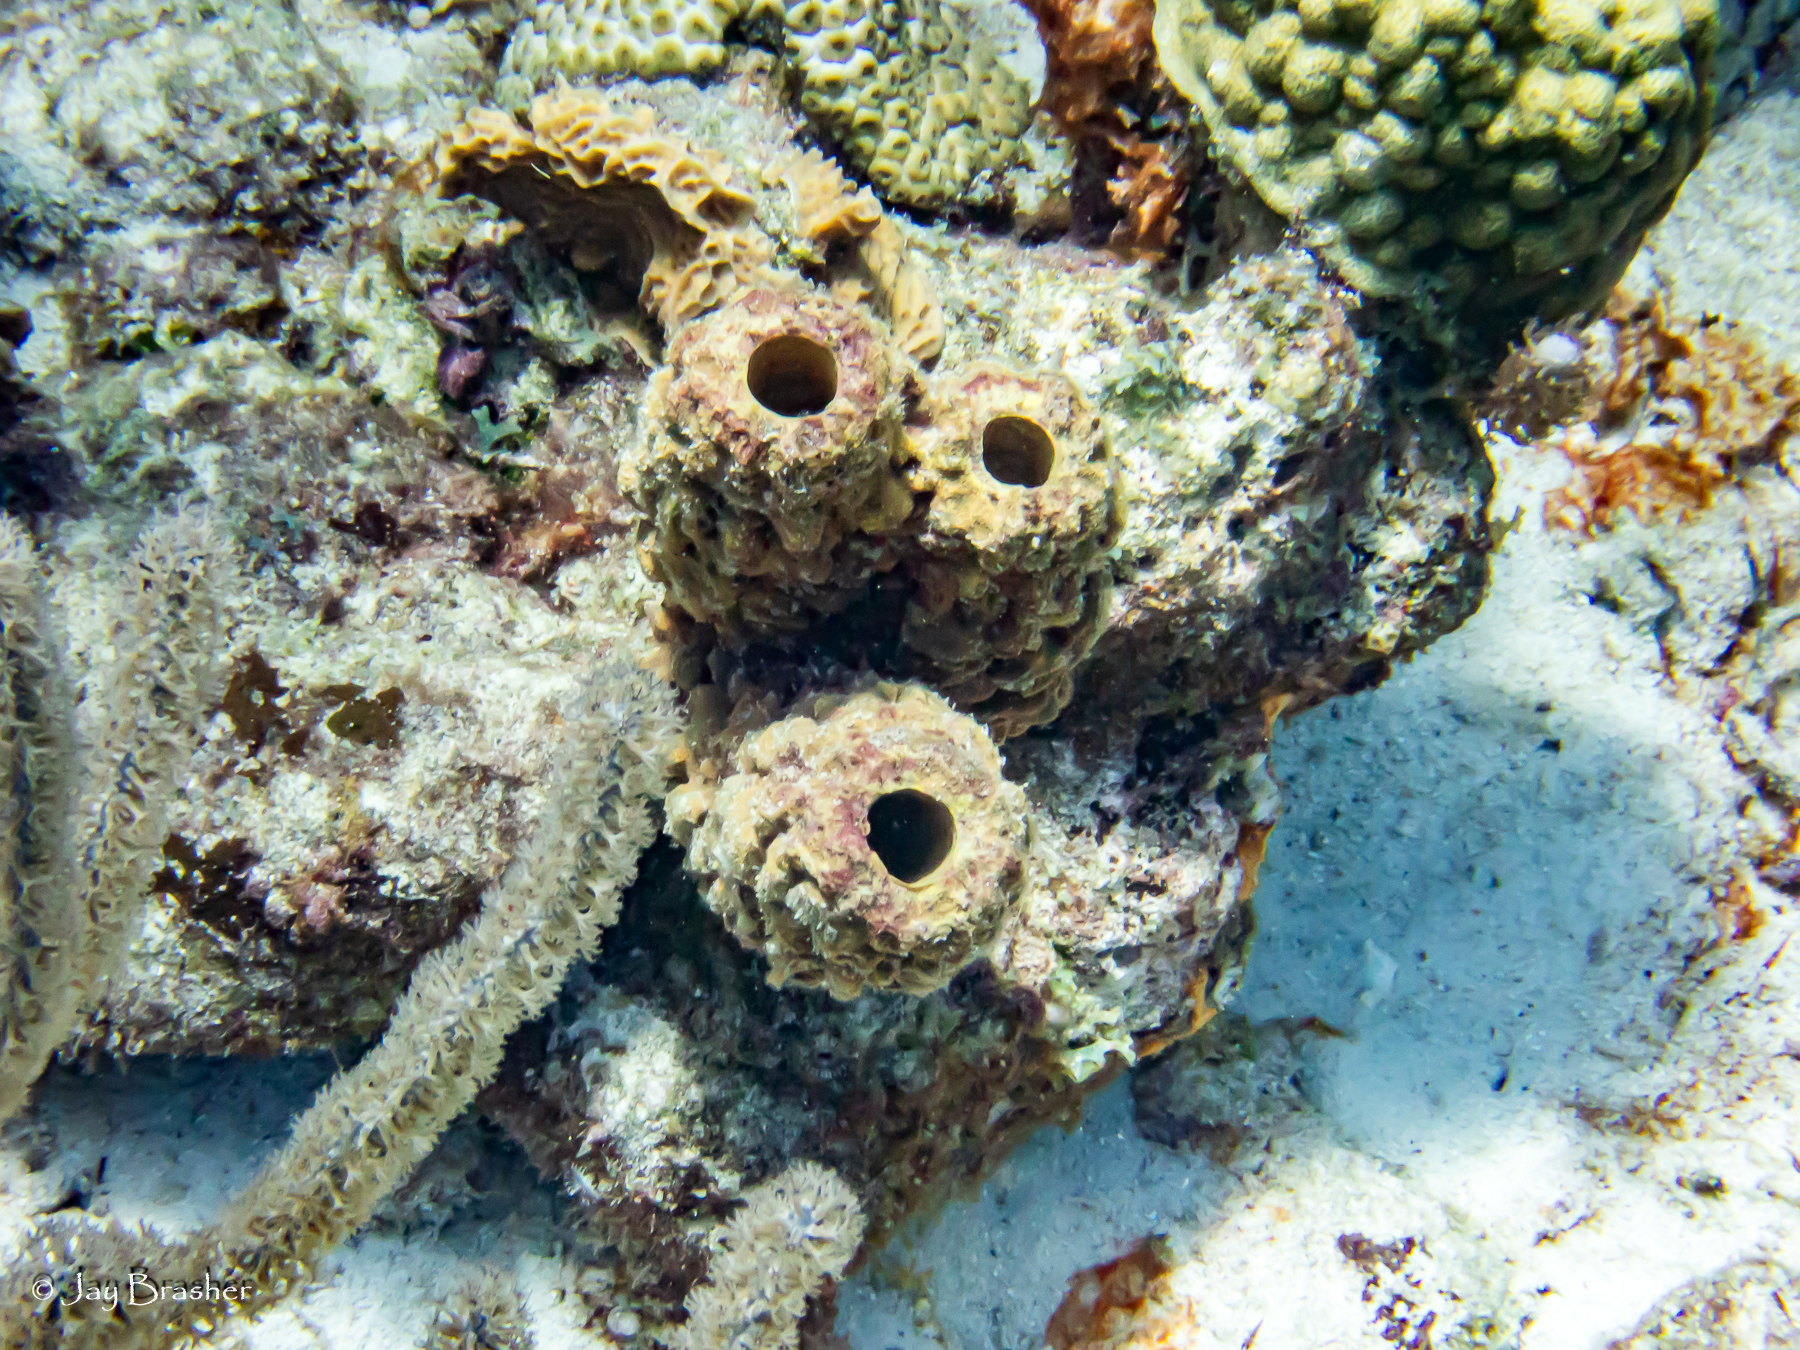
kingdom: Animalia
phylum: Porifera
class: Demospongiae
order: Verongiida
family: Aplysinidae
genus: Aplysina
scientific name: Aplysina archeri
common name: Stove-pipe sponge
